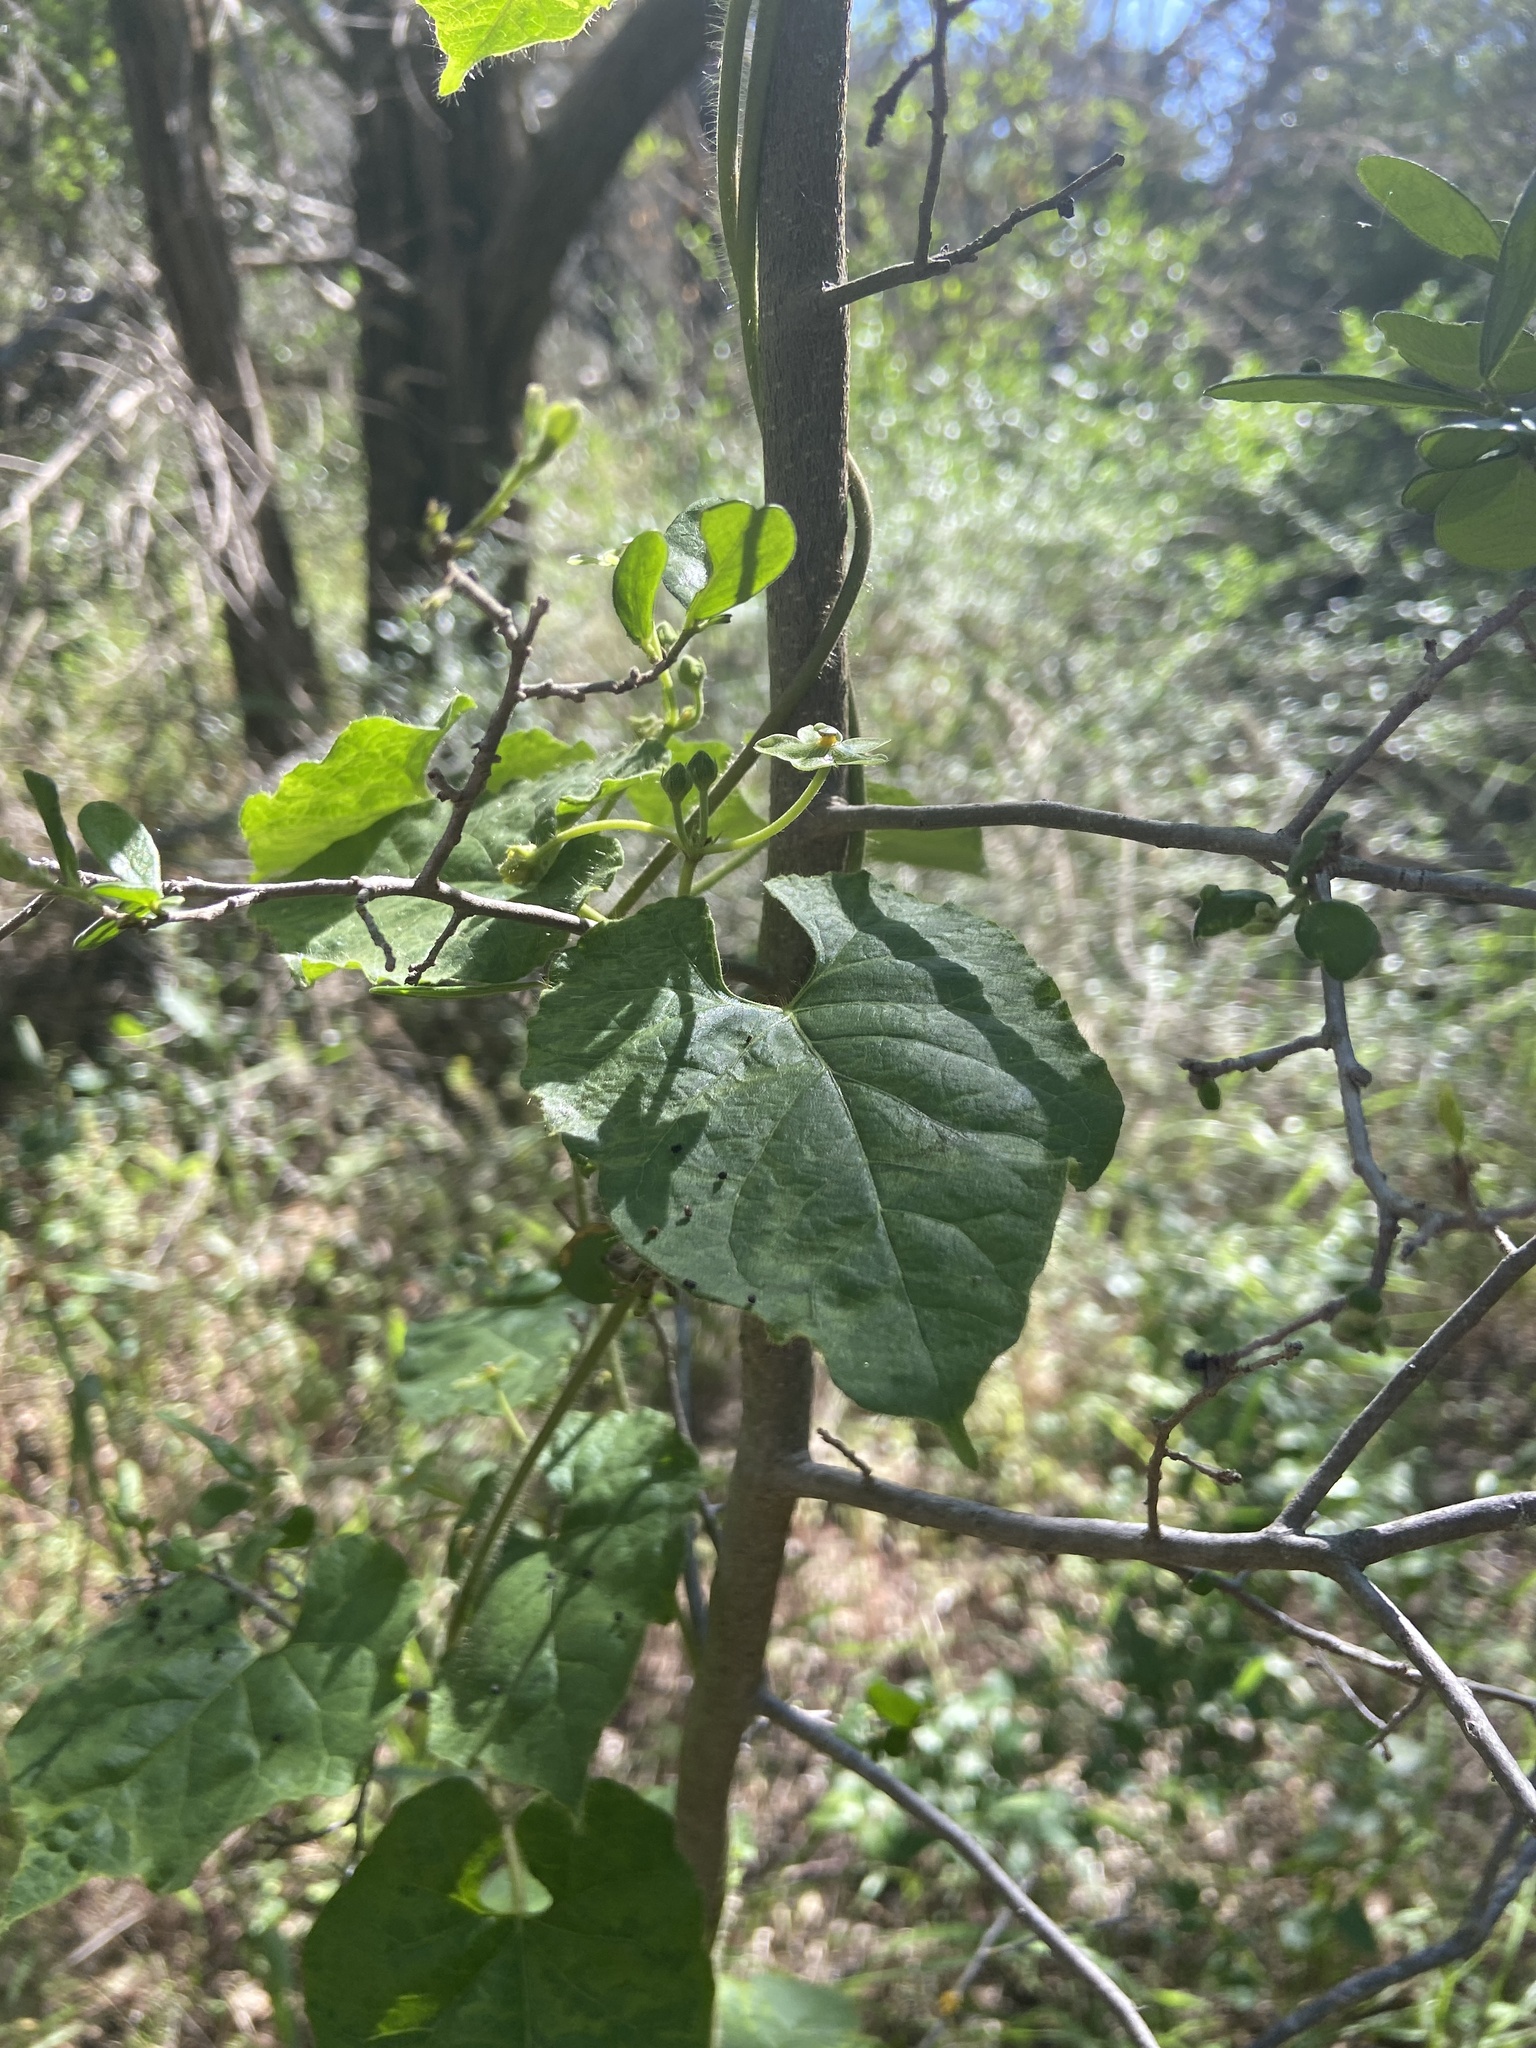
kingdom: Plantae
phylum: Tracheophyta
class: Magnoliopsida
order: Gentianales
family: Apocynaceae
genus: Dictyanthus
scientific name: Dictyanthus reticulatus
